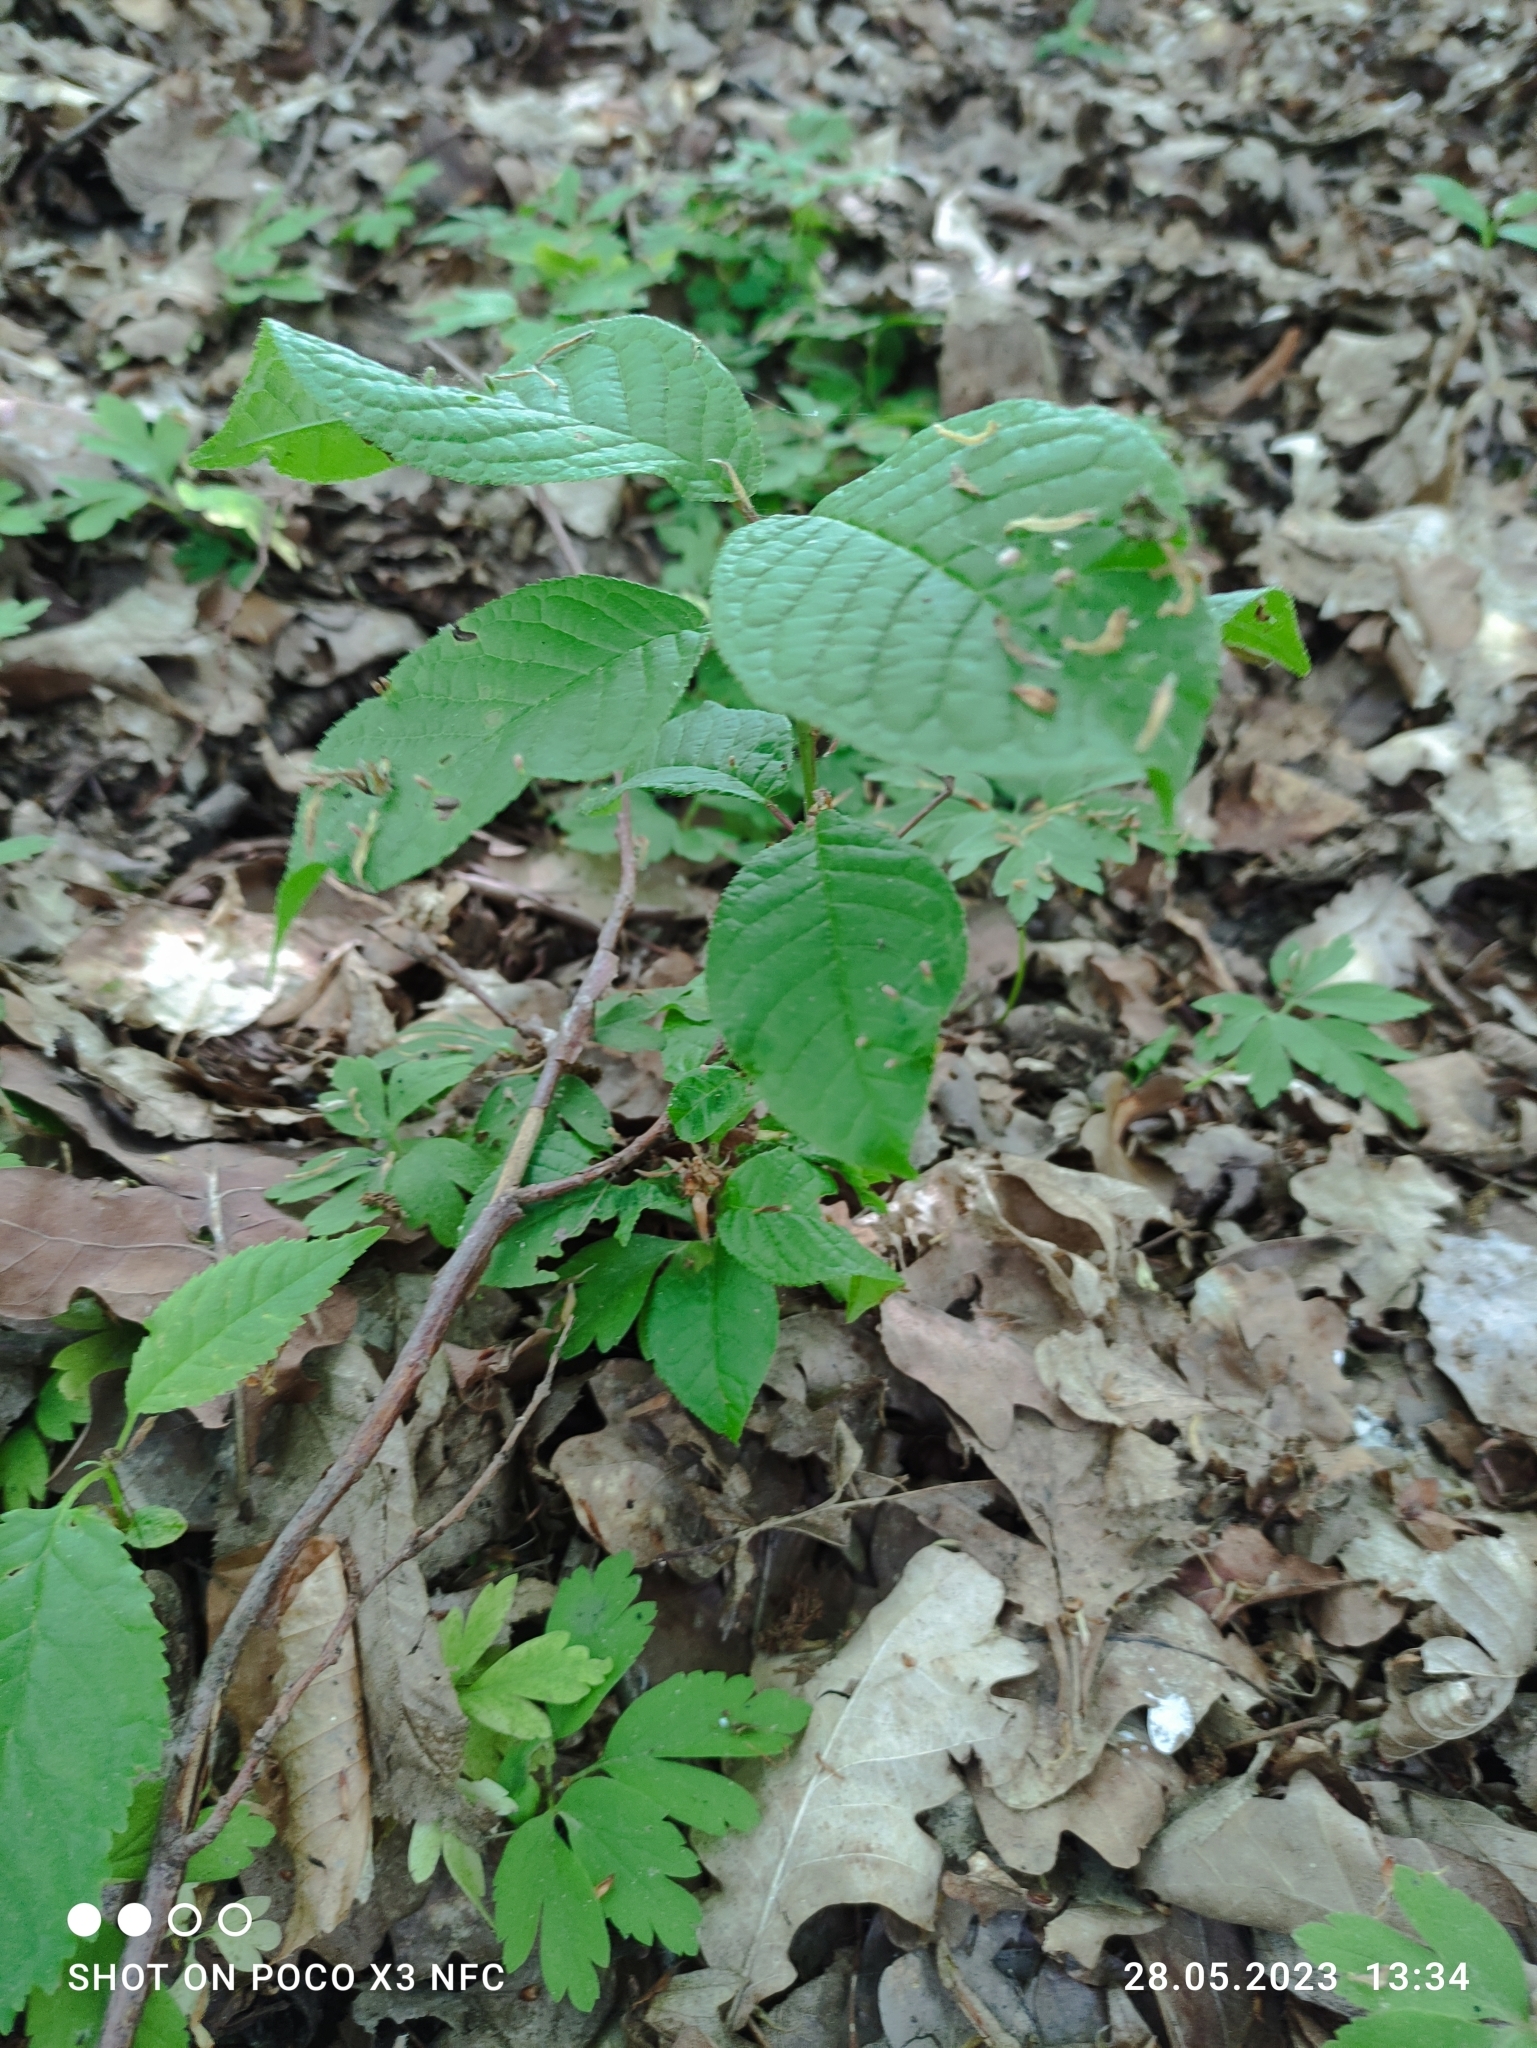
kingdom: Plantae
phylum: Tracheophyta
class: Magnoliopsida
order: Rosales
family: Rosaceae
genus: Prunus
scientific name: Prunus padus
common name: Bird cherry
